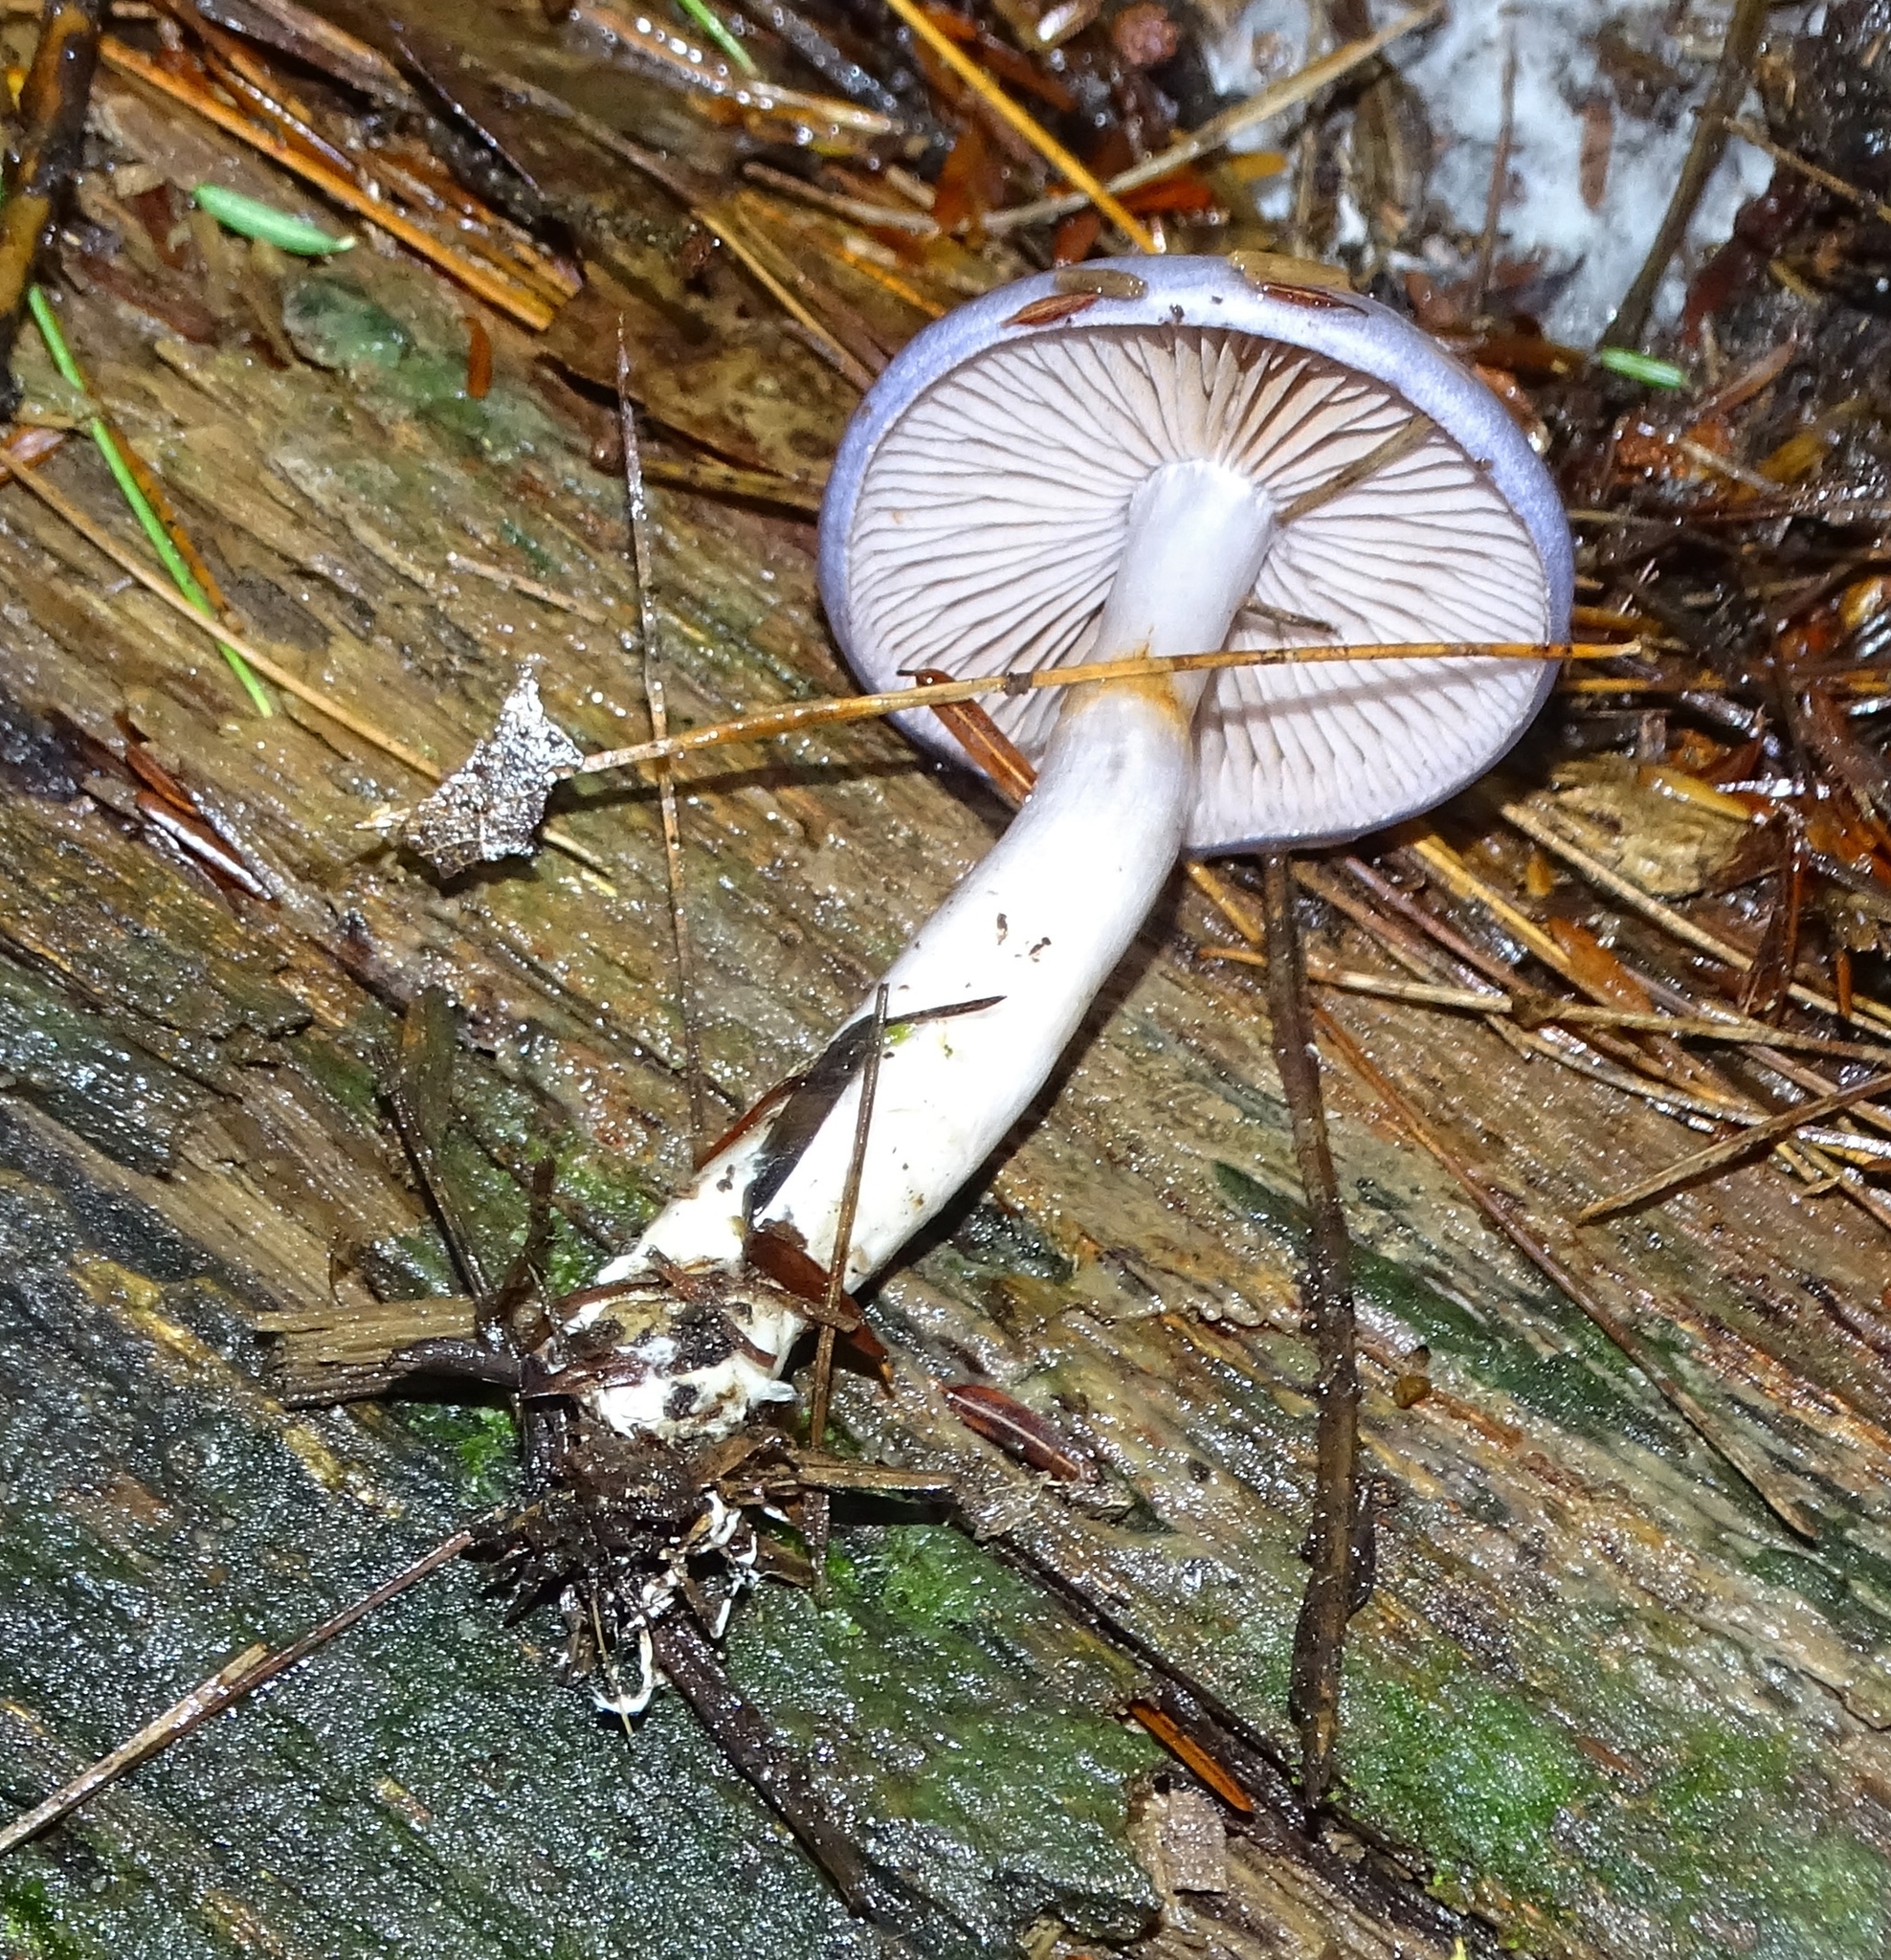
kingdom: Fungi
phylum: Basidiomycota
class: Agaricomycetes
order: Agaricales
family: Cortinariaceae
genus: Cortinarius
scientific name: Cortinarius iodes
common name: Viscid violet cort
